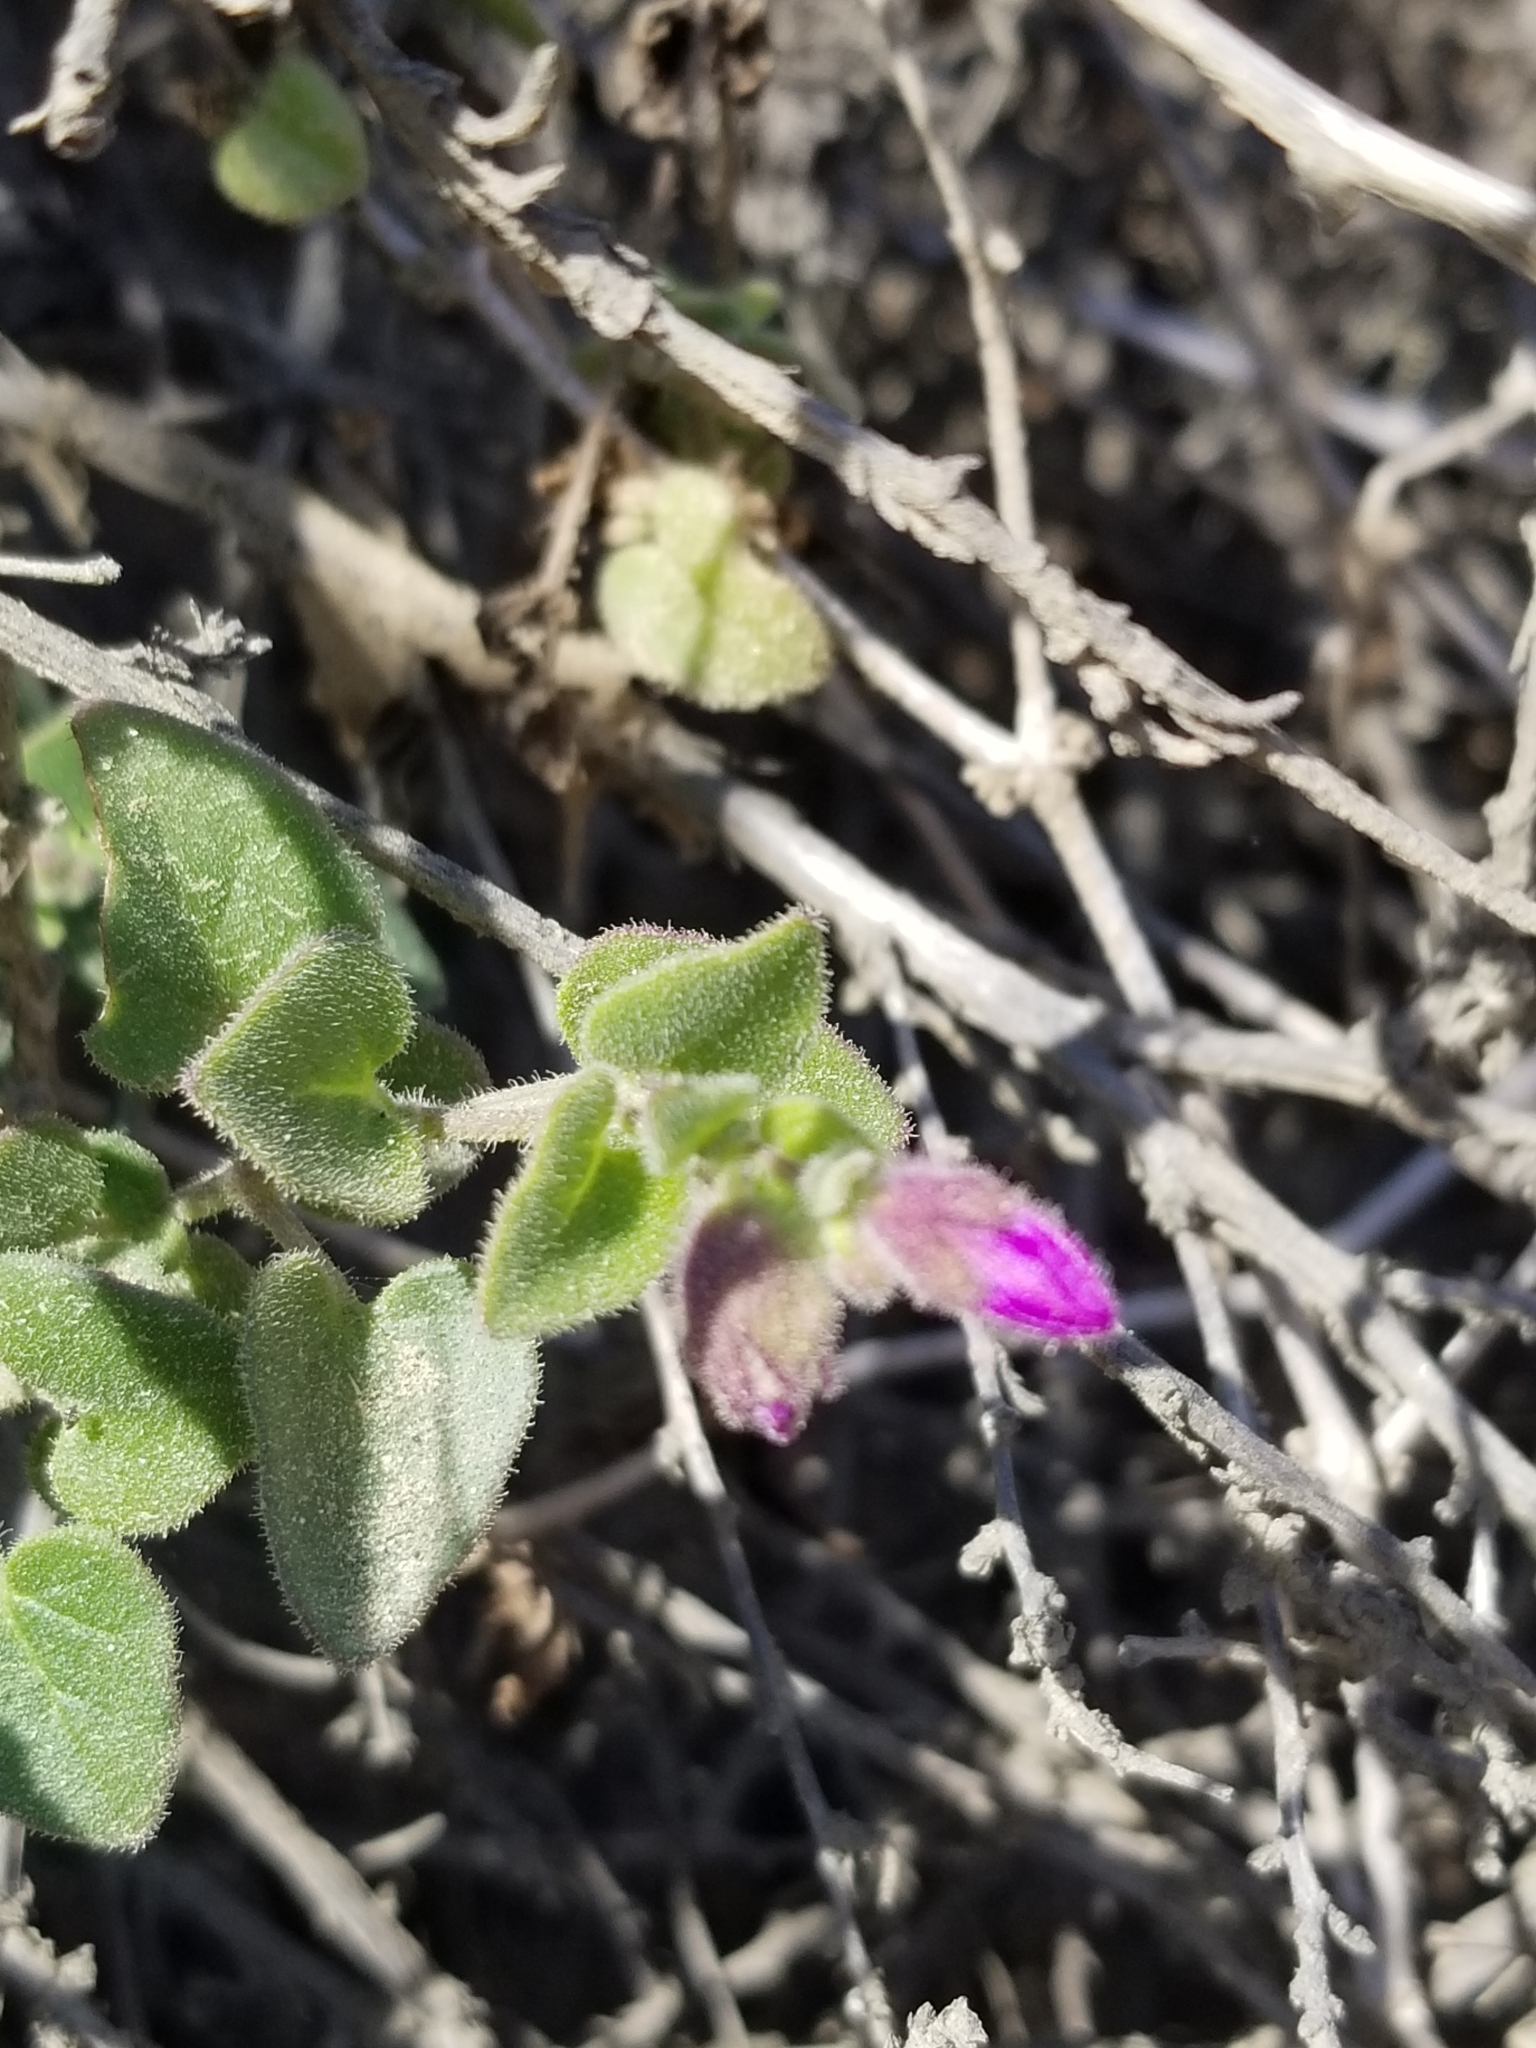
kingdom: Plantae
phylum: Tracheophyta
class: Magnoliopsida
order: Caryophyllales
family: Nyctaginaceae
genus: Mirabilis
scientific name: Mirabilis laevis
